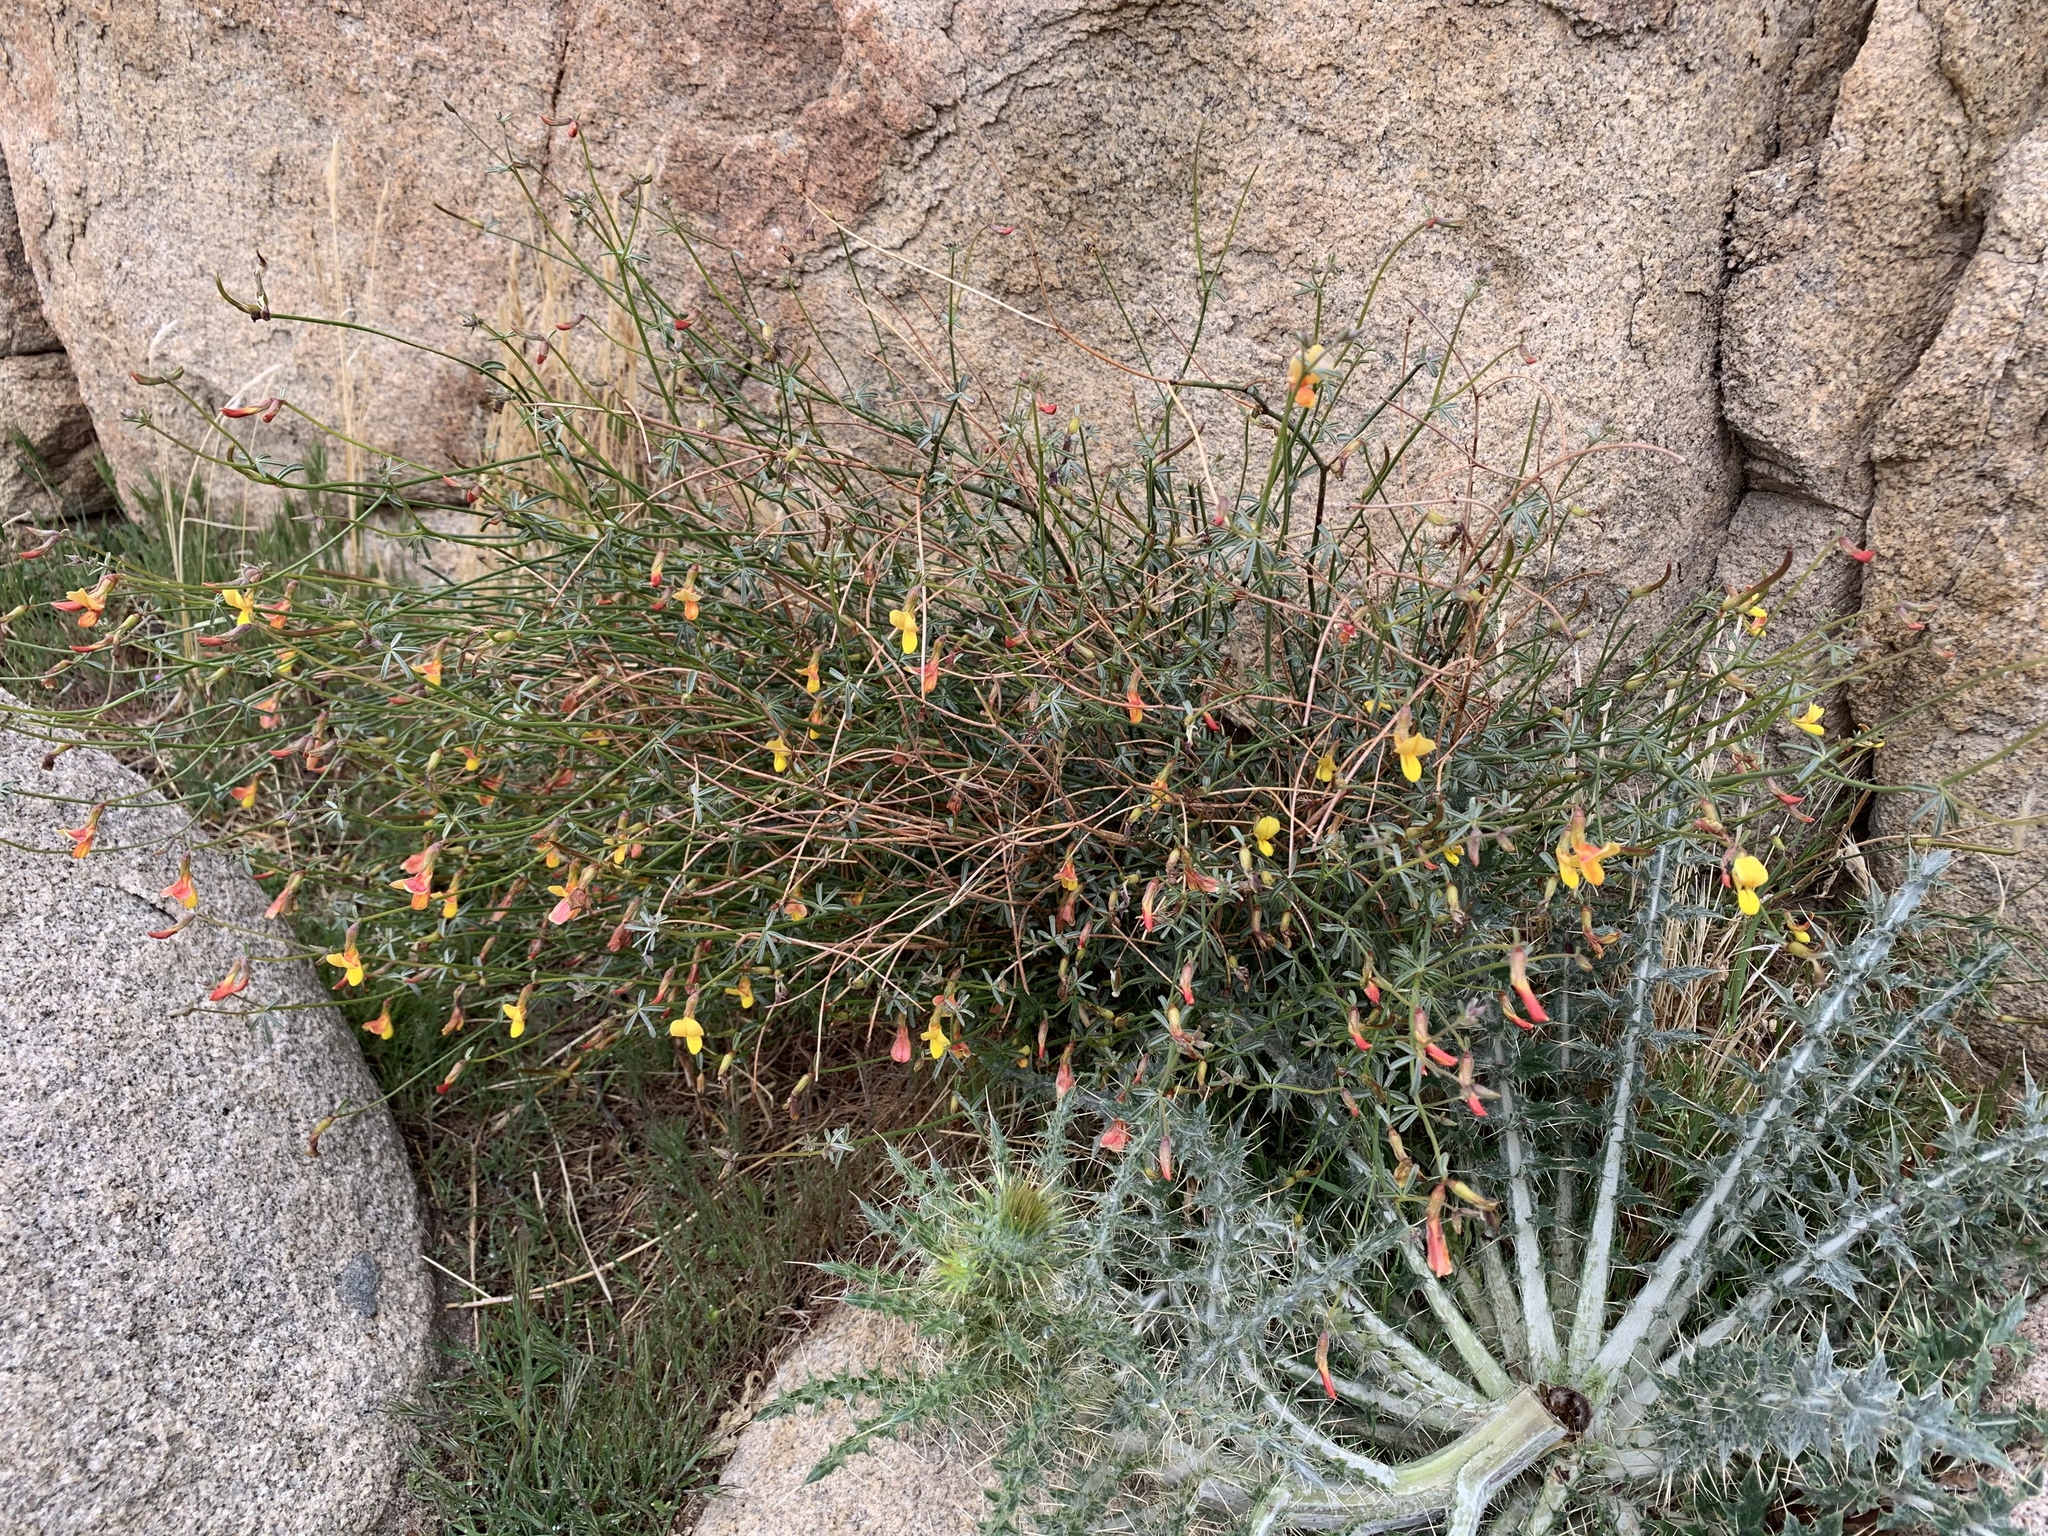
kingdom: Plantae
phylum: Tracheophyta
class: Magnoliopsida
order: Fabales
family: Fabaceae
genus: Acmispon
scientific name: Acmispon rigidus
